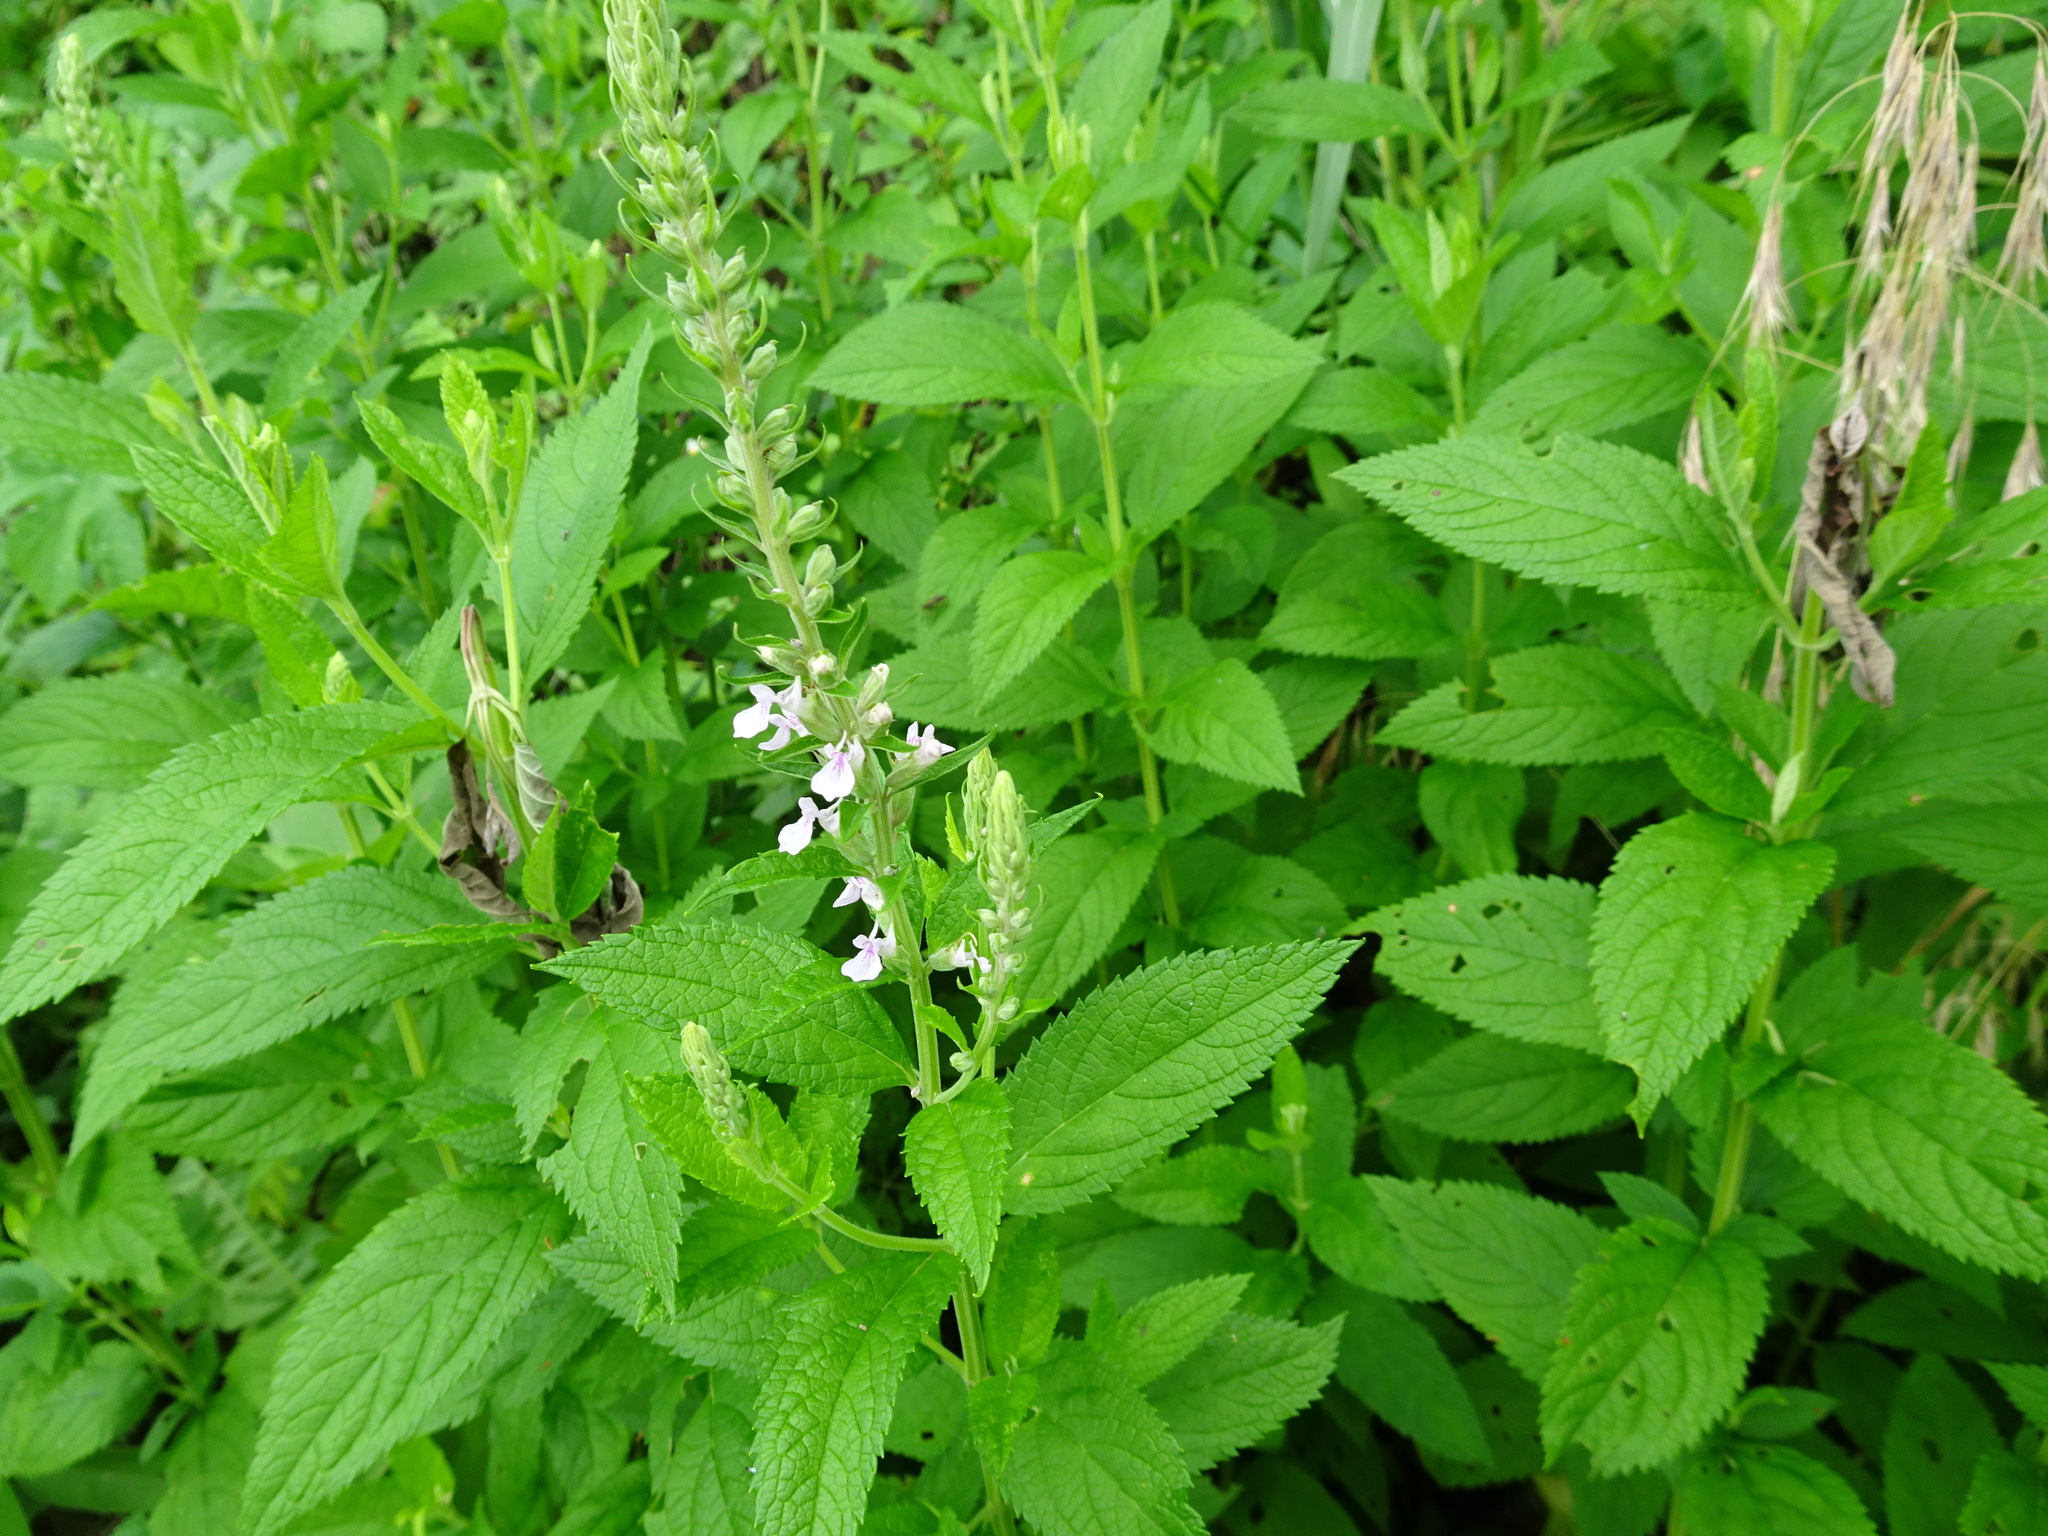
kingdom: Plantae
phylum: Tracheophyta
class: Magnoliopsida
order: Lamiales
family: Lamiaceae
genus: Teucrium
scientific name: Teucrium canadense
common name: American germander
